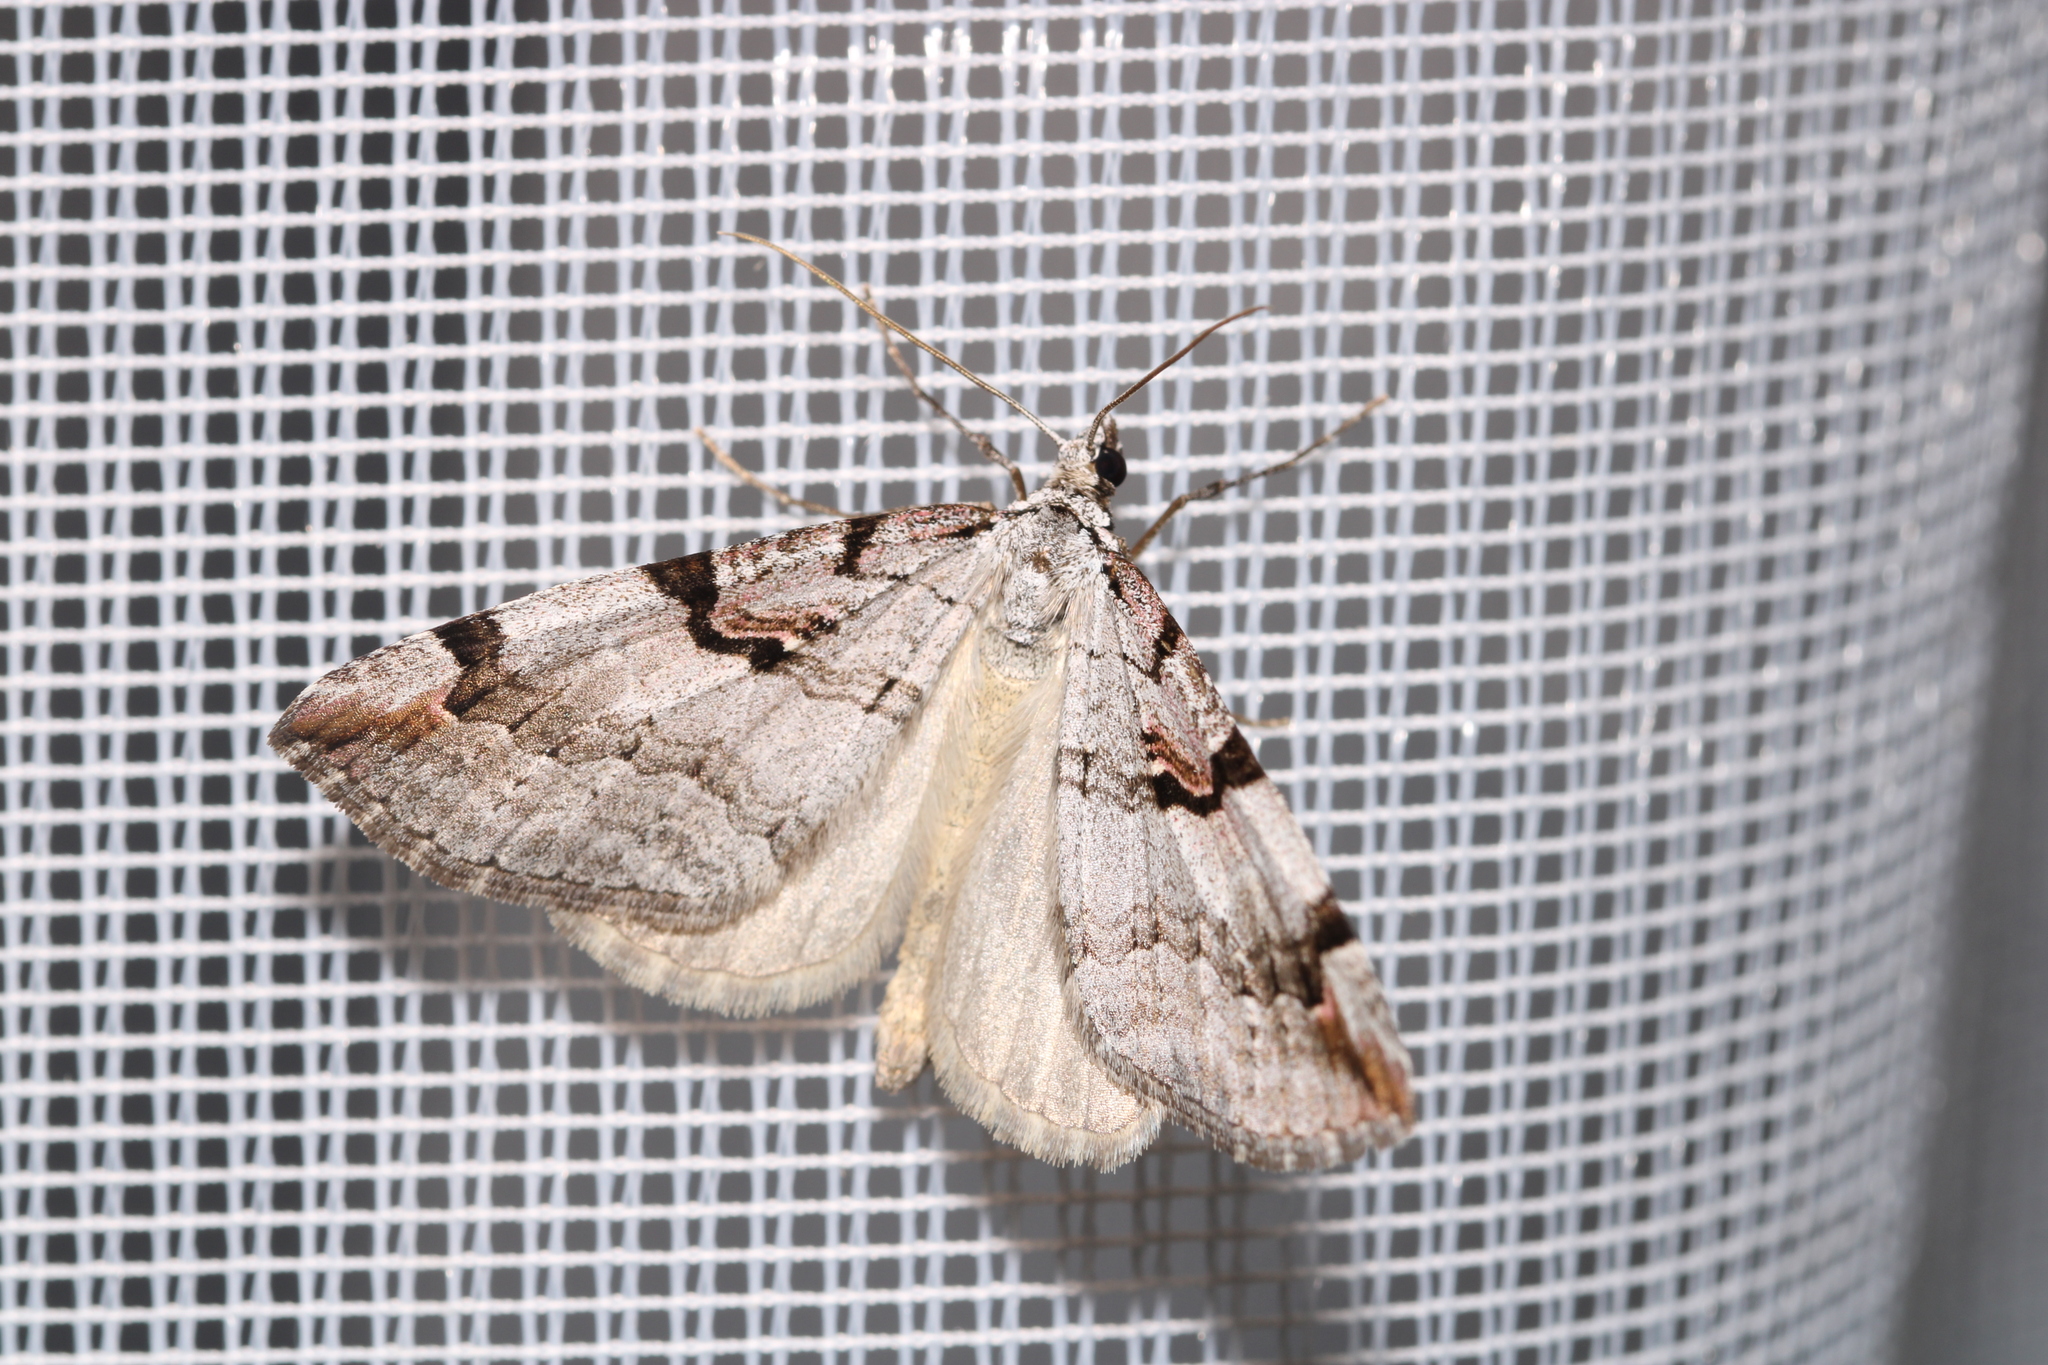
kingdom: Animalia
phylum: Arthropoda
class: Insecta
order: Lepidoptera
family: Geometridae
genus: Aplocera
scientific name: Aplocera praeformata
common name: Purple treble-bar
